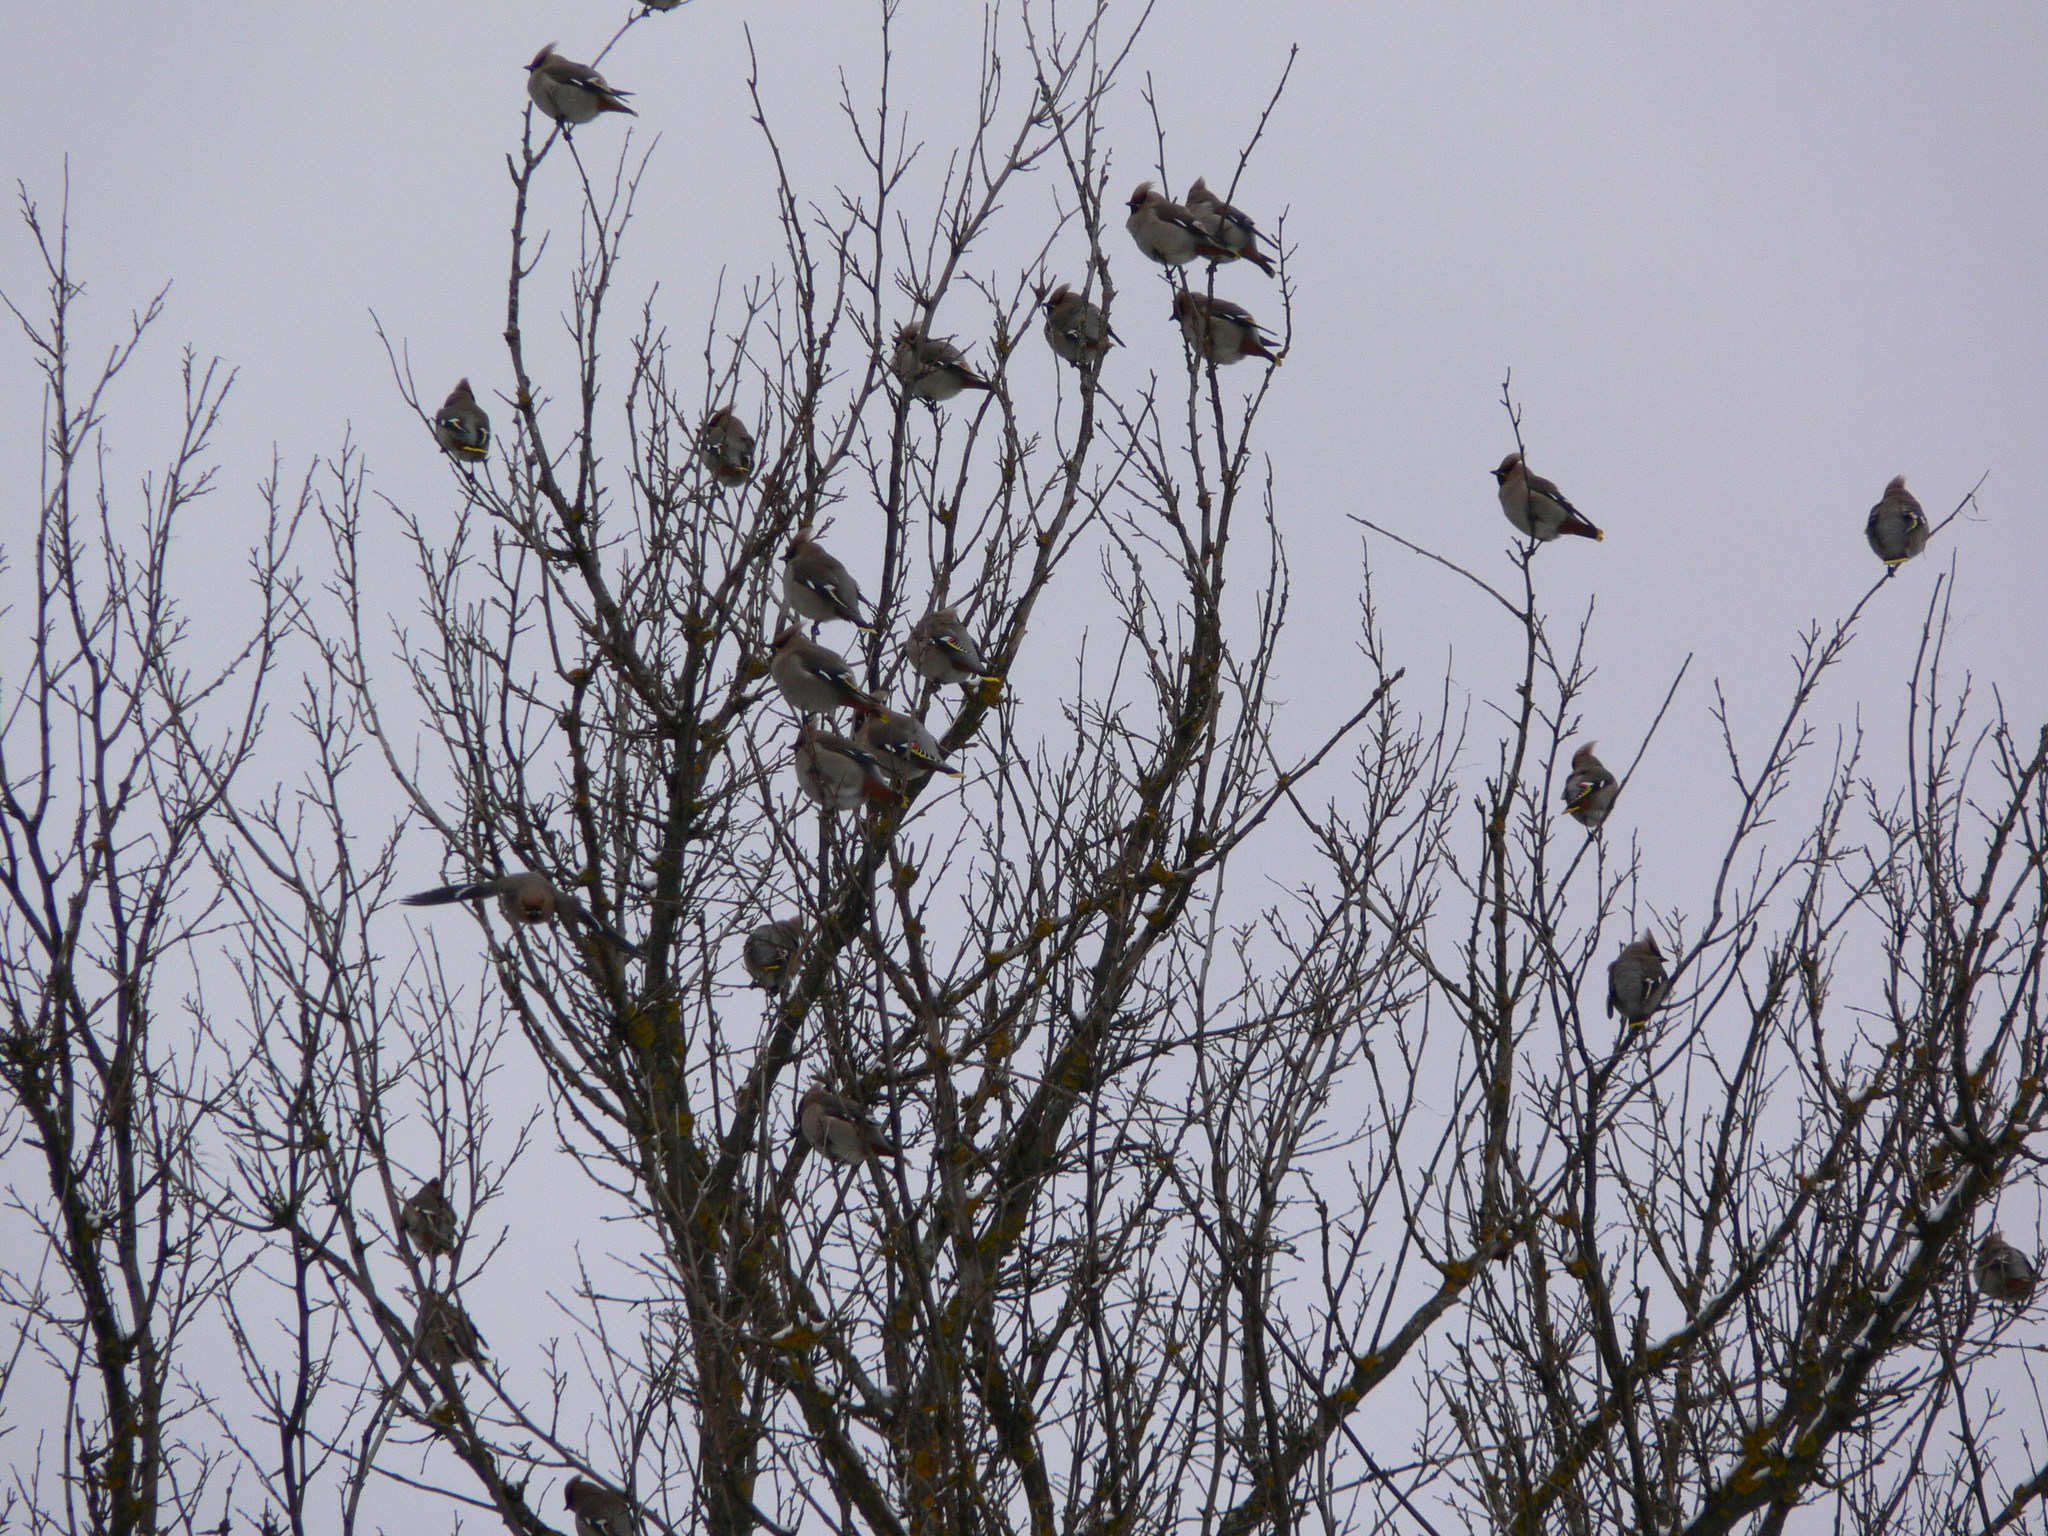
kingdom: Animalia
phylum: Chordata
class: Aves
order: Passeriformes
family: Bombycillidae
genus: Bombycilla
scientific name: Bombycilla garrulus
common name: Bohemian waxwing
